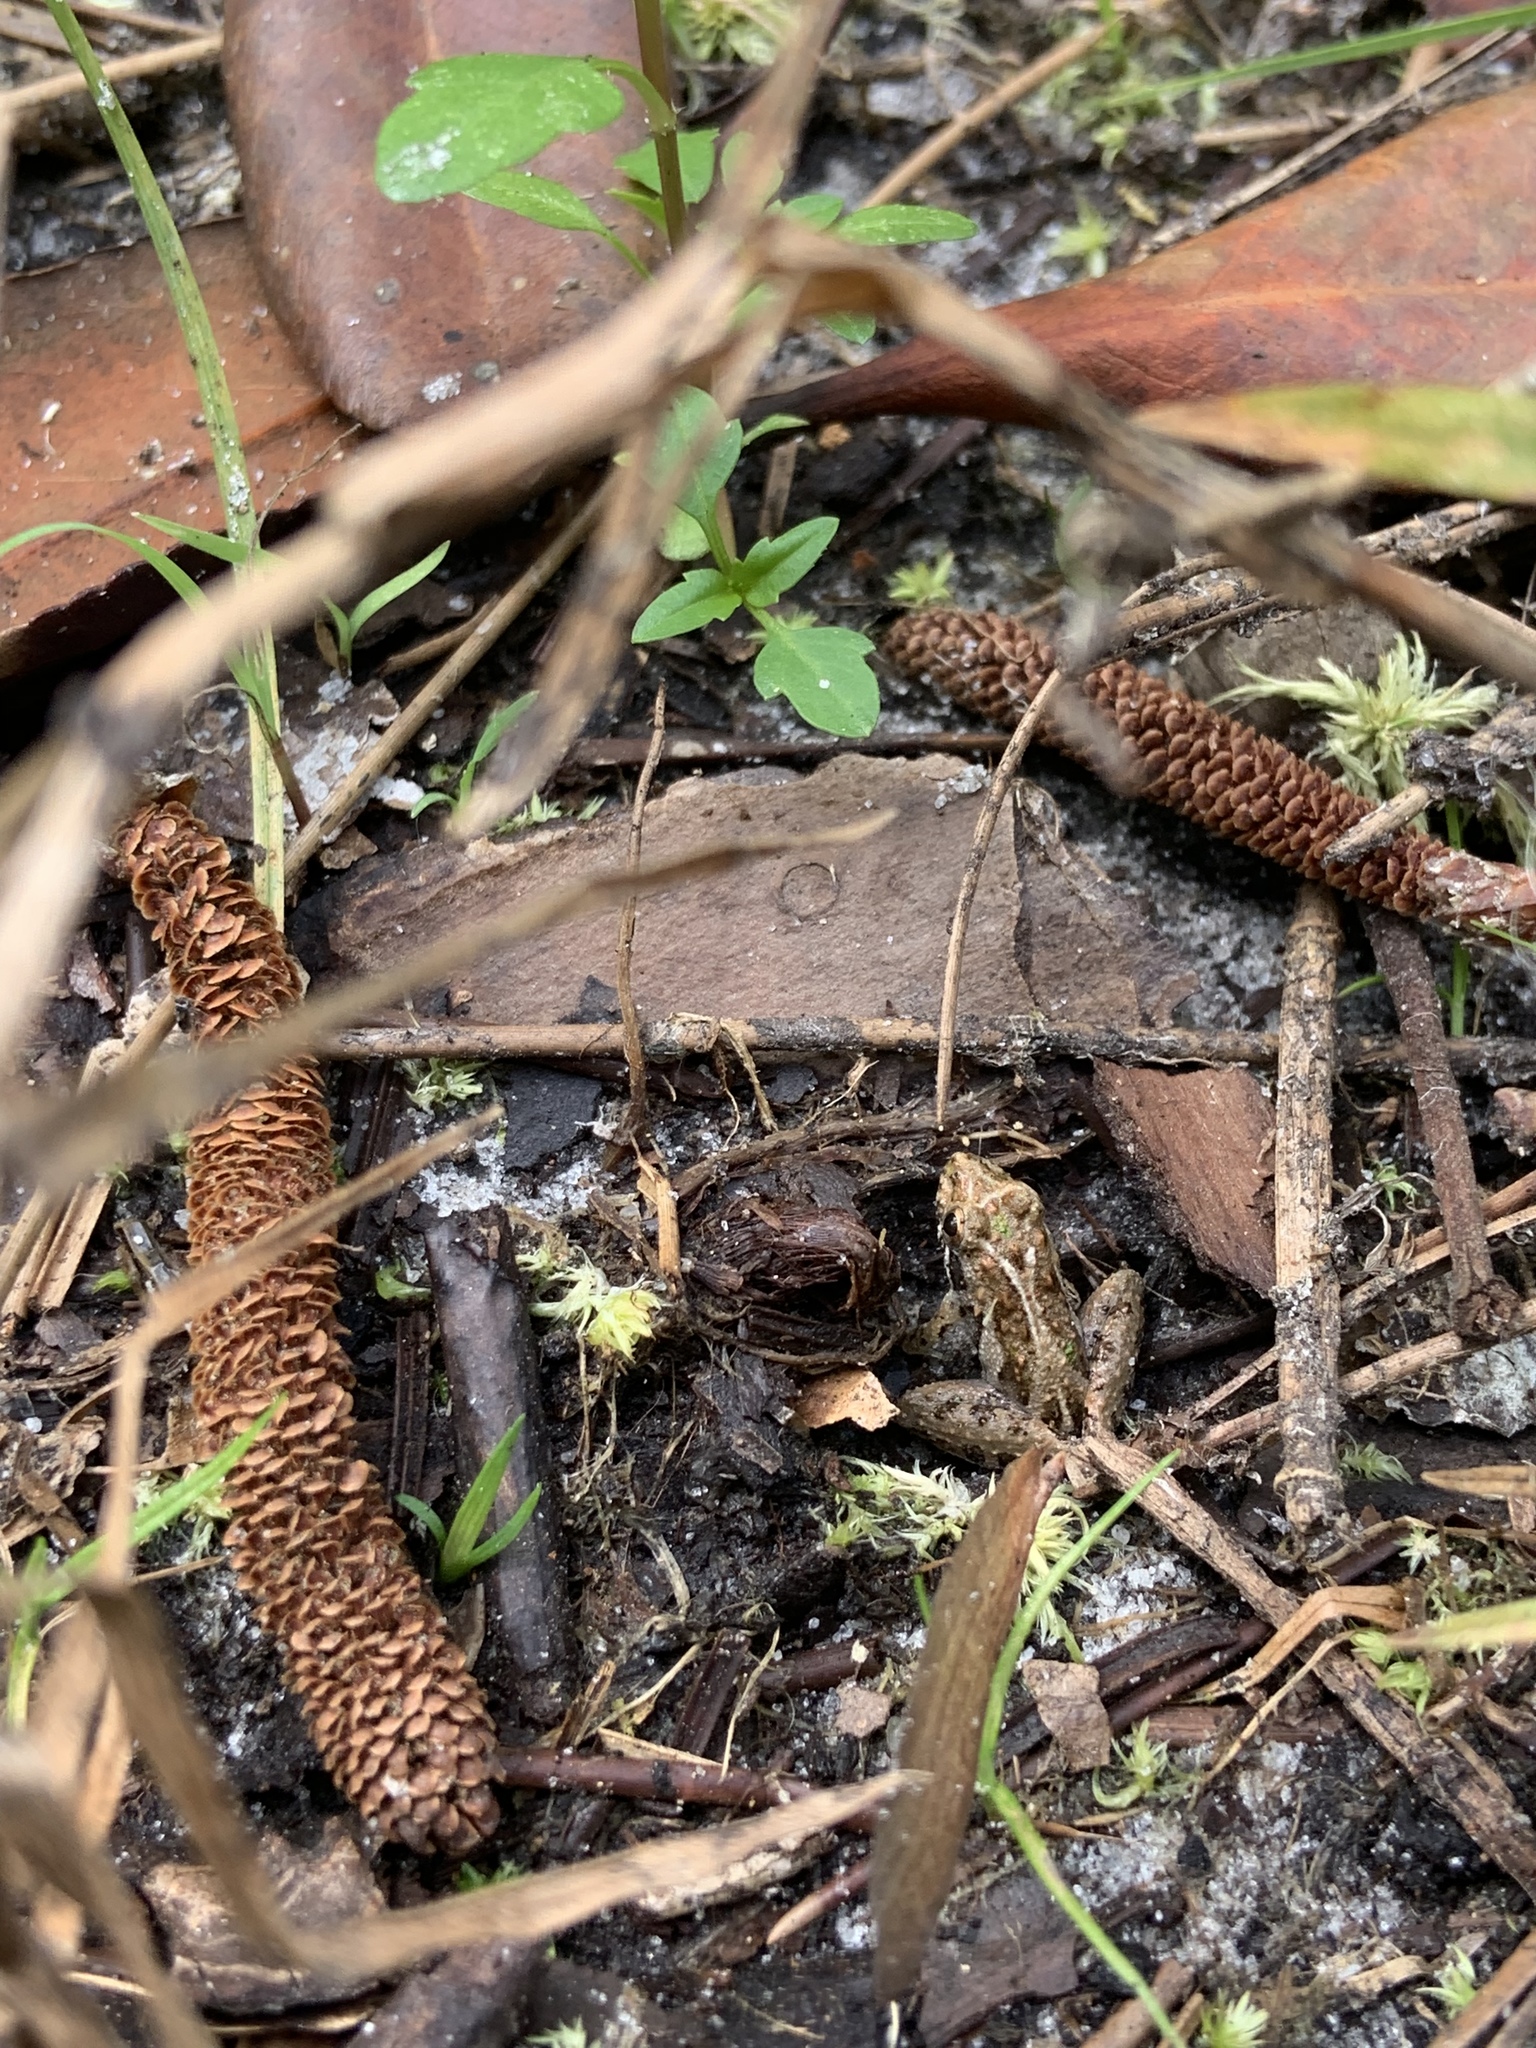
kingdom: Animalia
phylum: Chordata
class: Amphibia
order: Anura
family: Hylidae
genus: Acris
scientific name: Acris gryllus
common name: Southern cricket frog
